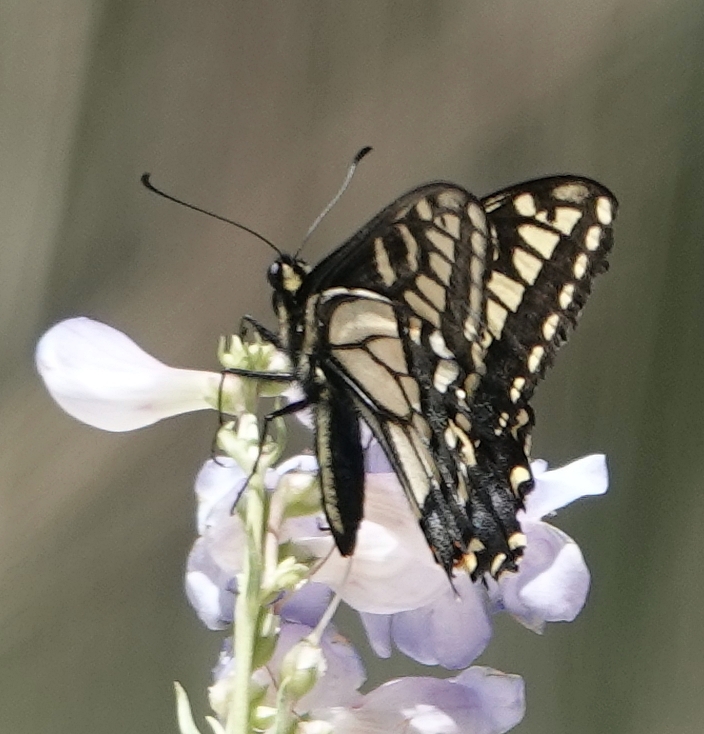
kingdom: Animalia
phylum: Arthropoda
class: Insecta
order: Lepidoptera
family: Papilionidae
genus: Papilio
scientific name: Papilio zelicaon
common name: Anise swallowtail
